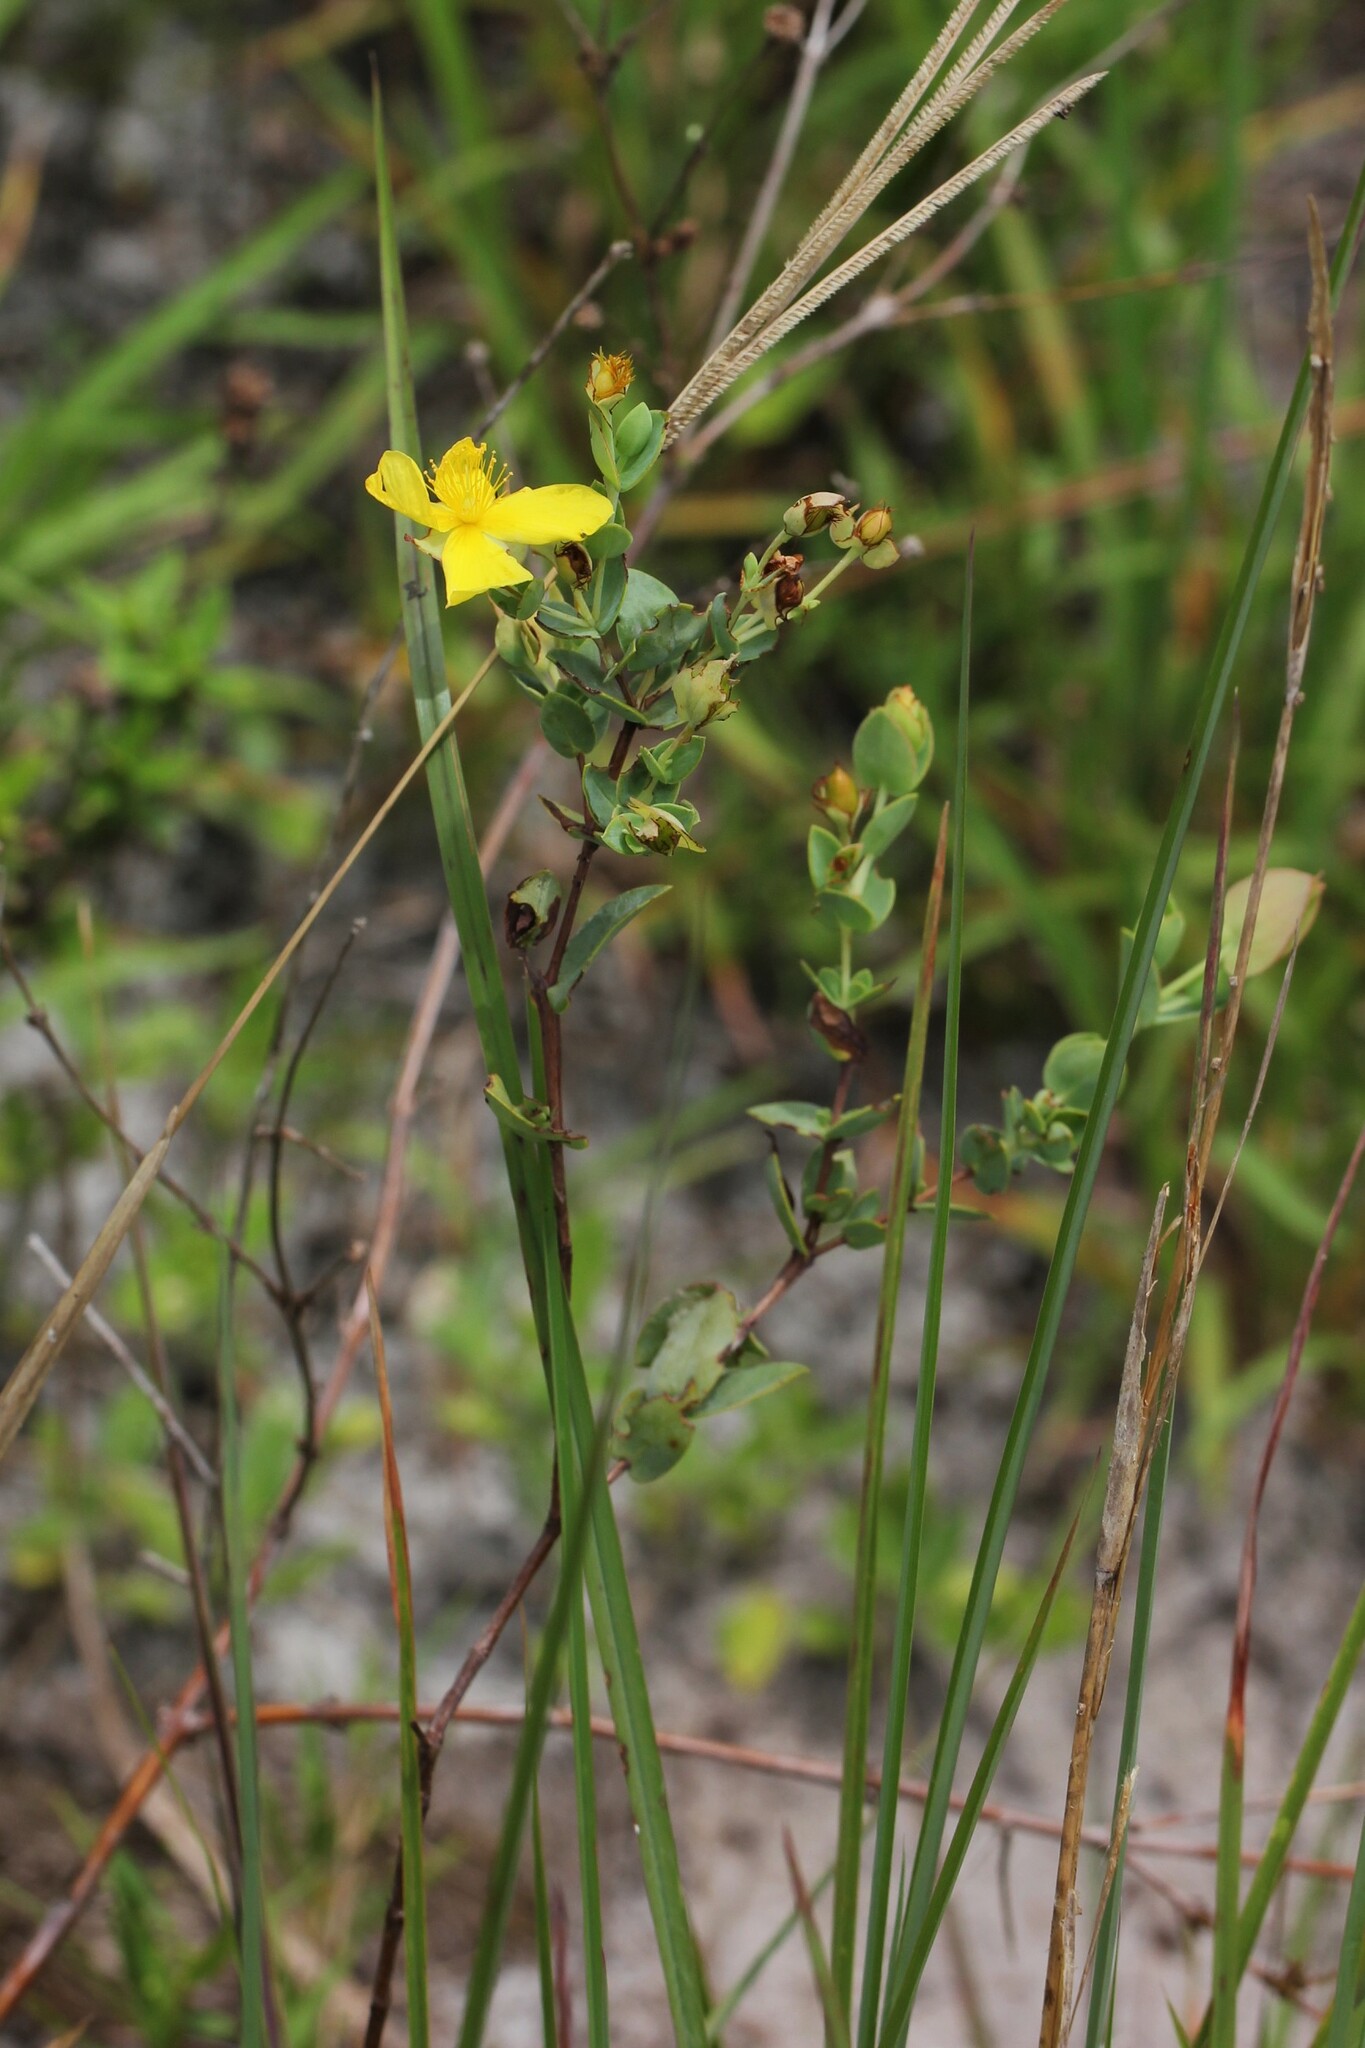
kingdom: Plantae
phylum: Tracheophyta
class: Magnoliopsida
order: Malpighiales
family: Hypericaceae
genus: Hypericum
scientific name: Hypericum tetrapetalum
